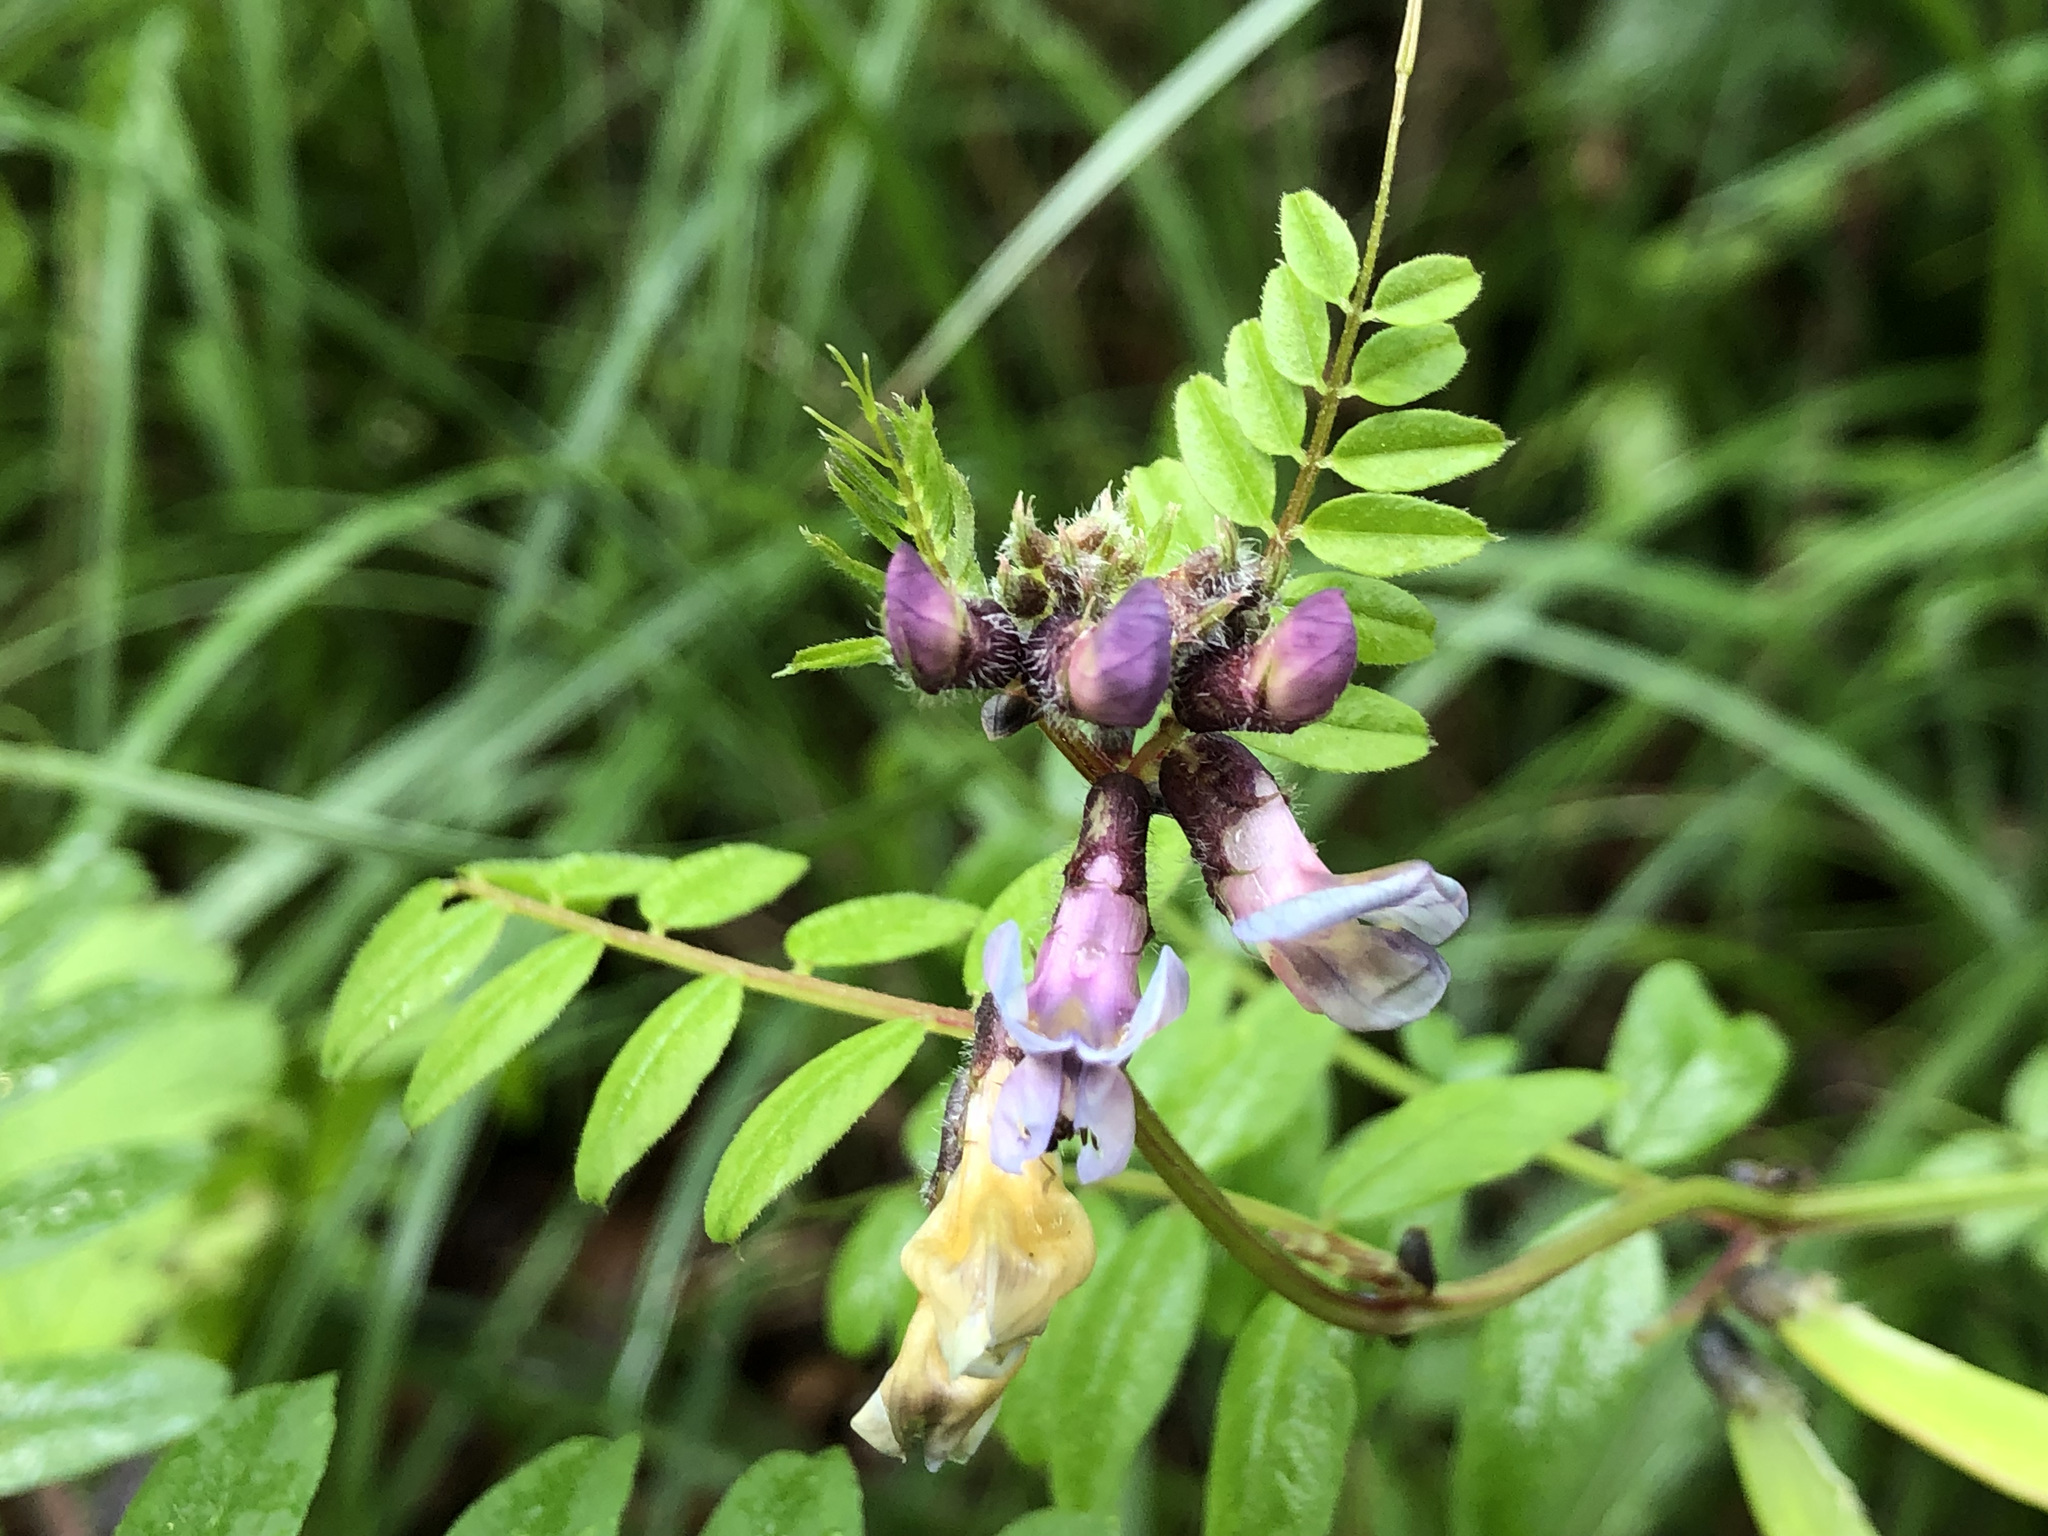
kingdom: Plantae
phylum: Tracheophyta
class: Magnoliopsida
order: Fabales
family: Fabaceae
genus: Vicia
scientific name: Vicia sepium
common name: Bush vetch
